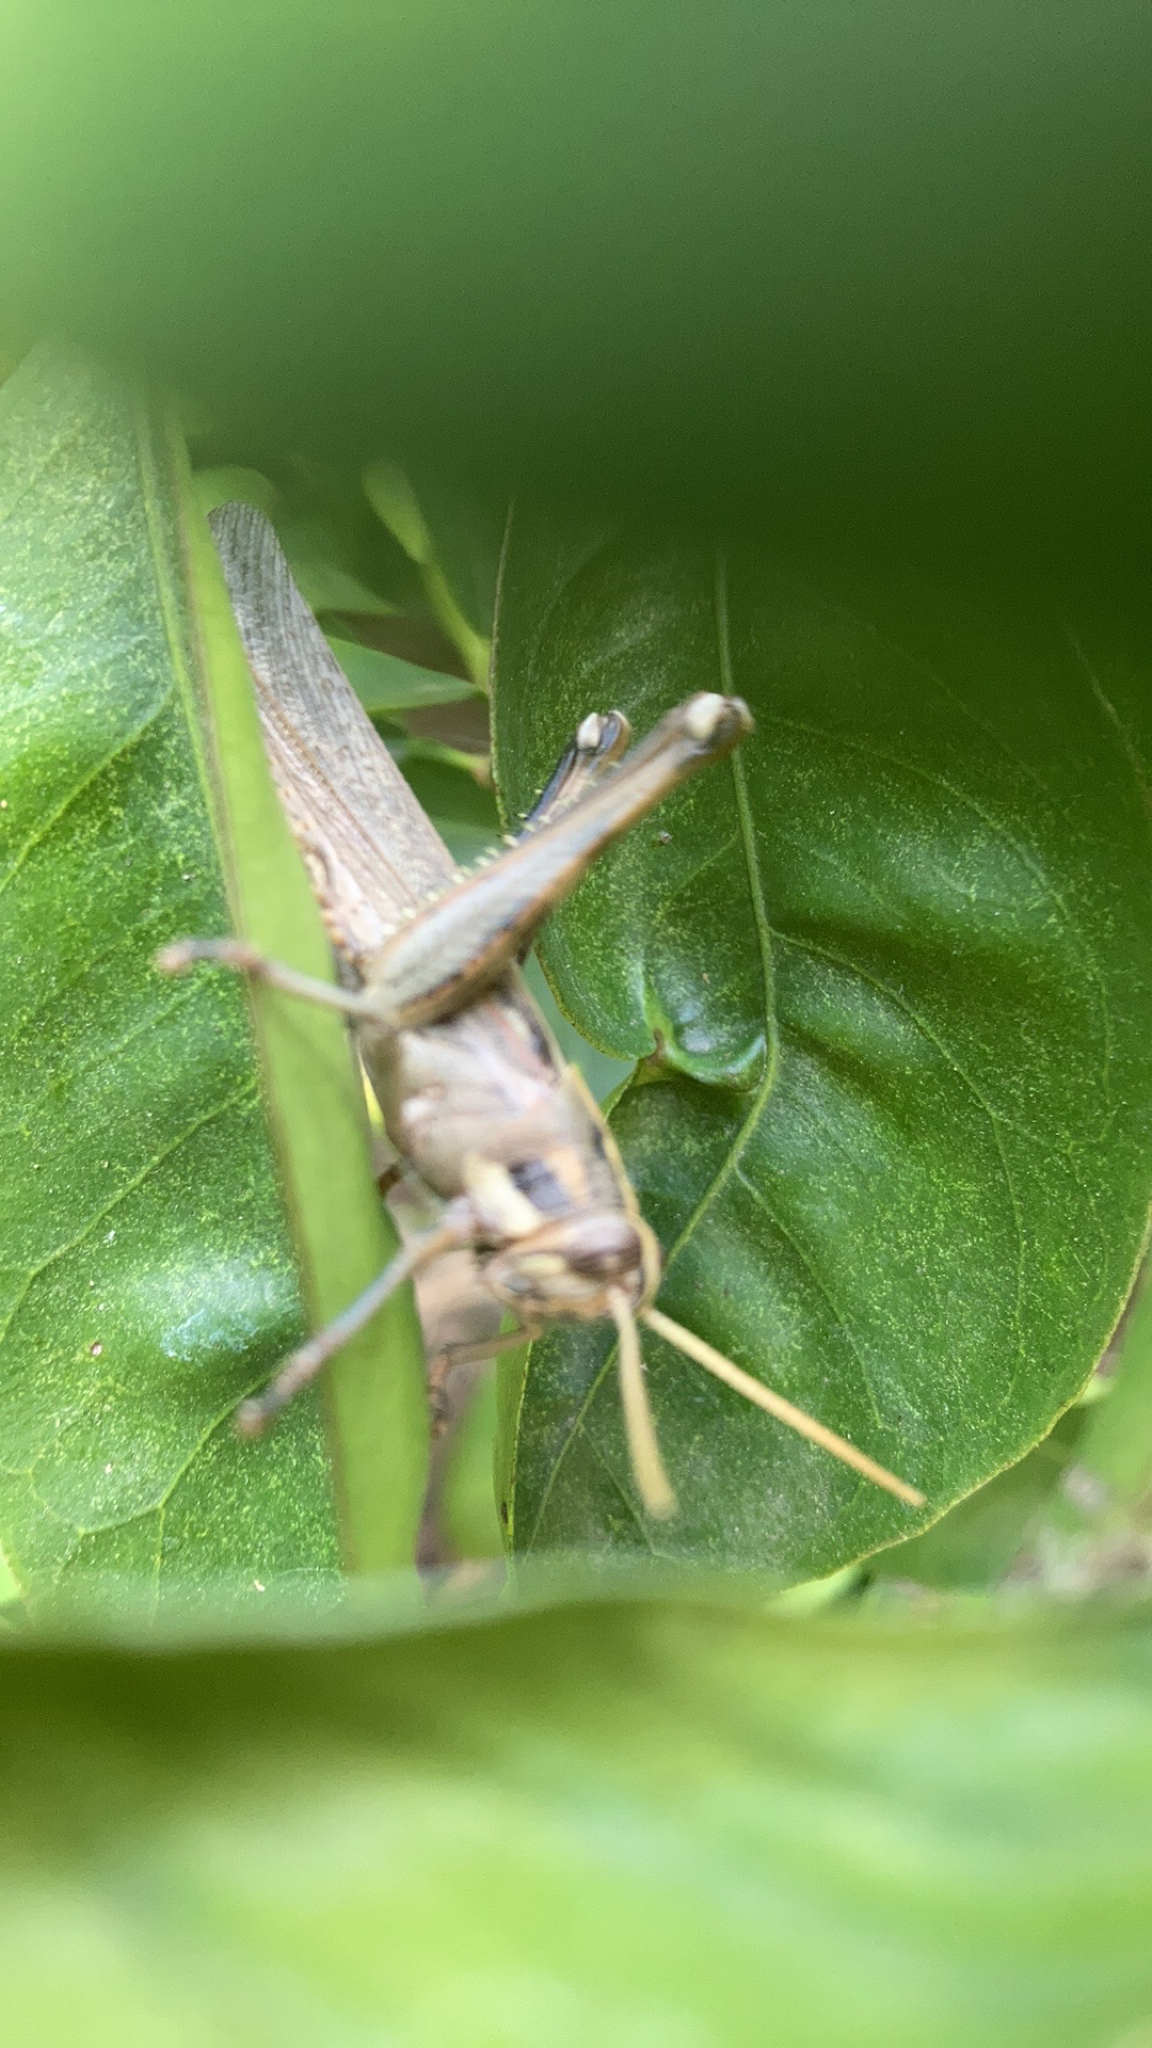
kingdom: Animalia
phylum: Arthropoda
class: Insecta
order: Orthoptera
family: Acrididae
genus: Schistocerca
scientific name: Schistocerca nitens
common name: Vagrant grasshopper
